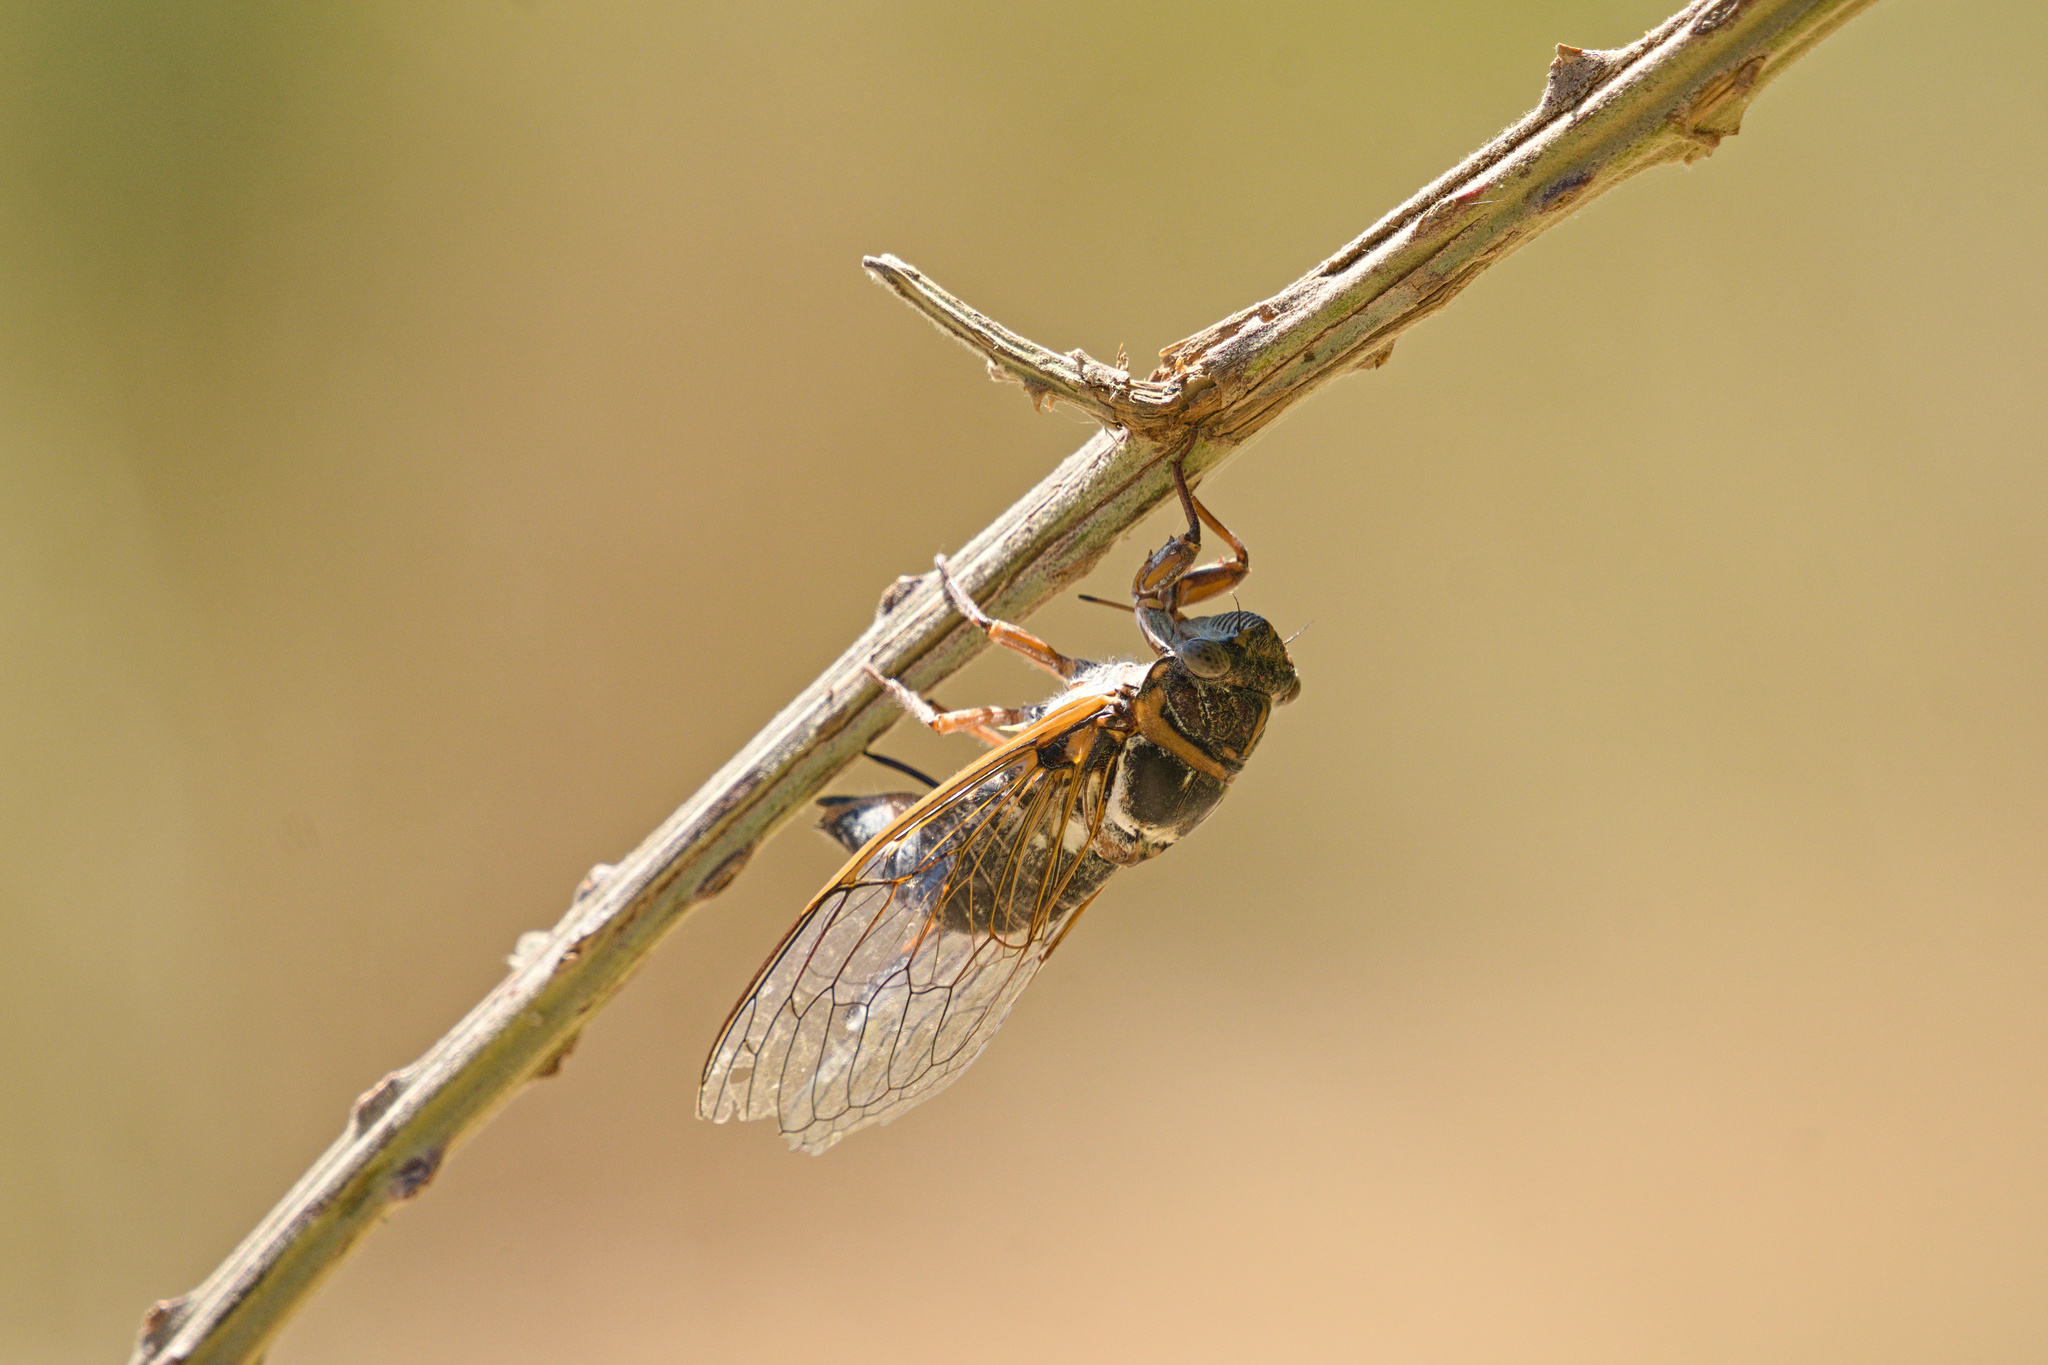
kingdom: Animalia
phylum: Arthropoda
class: Insecta
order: Hemiptera
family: Cicadidae
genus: Lyristes
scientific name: Lyristes plebejus
